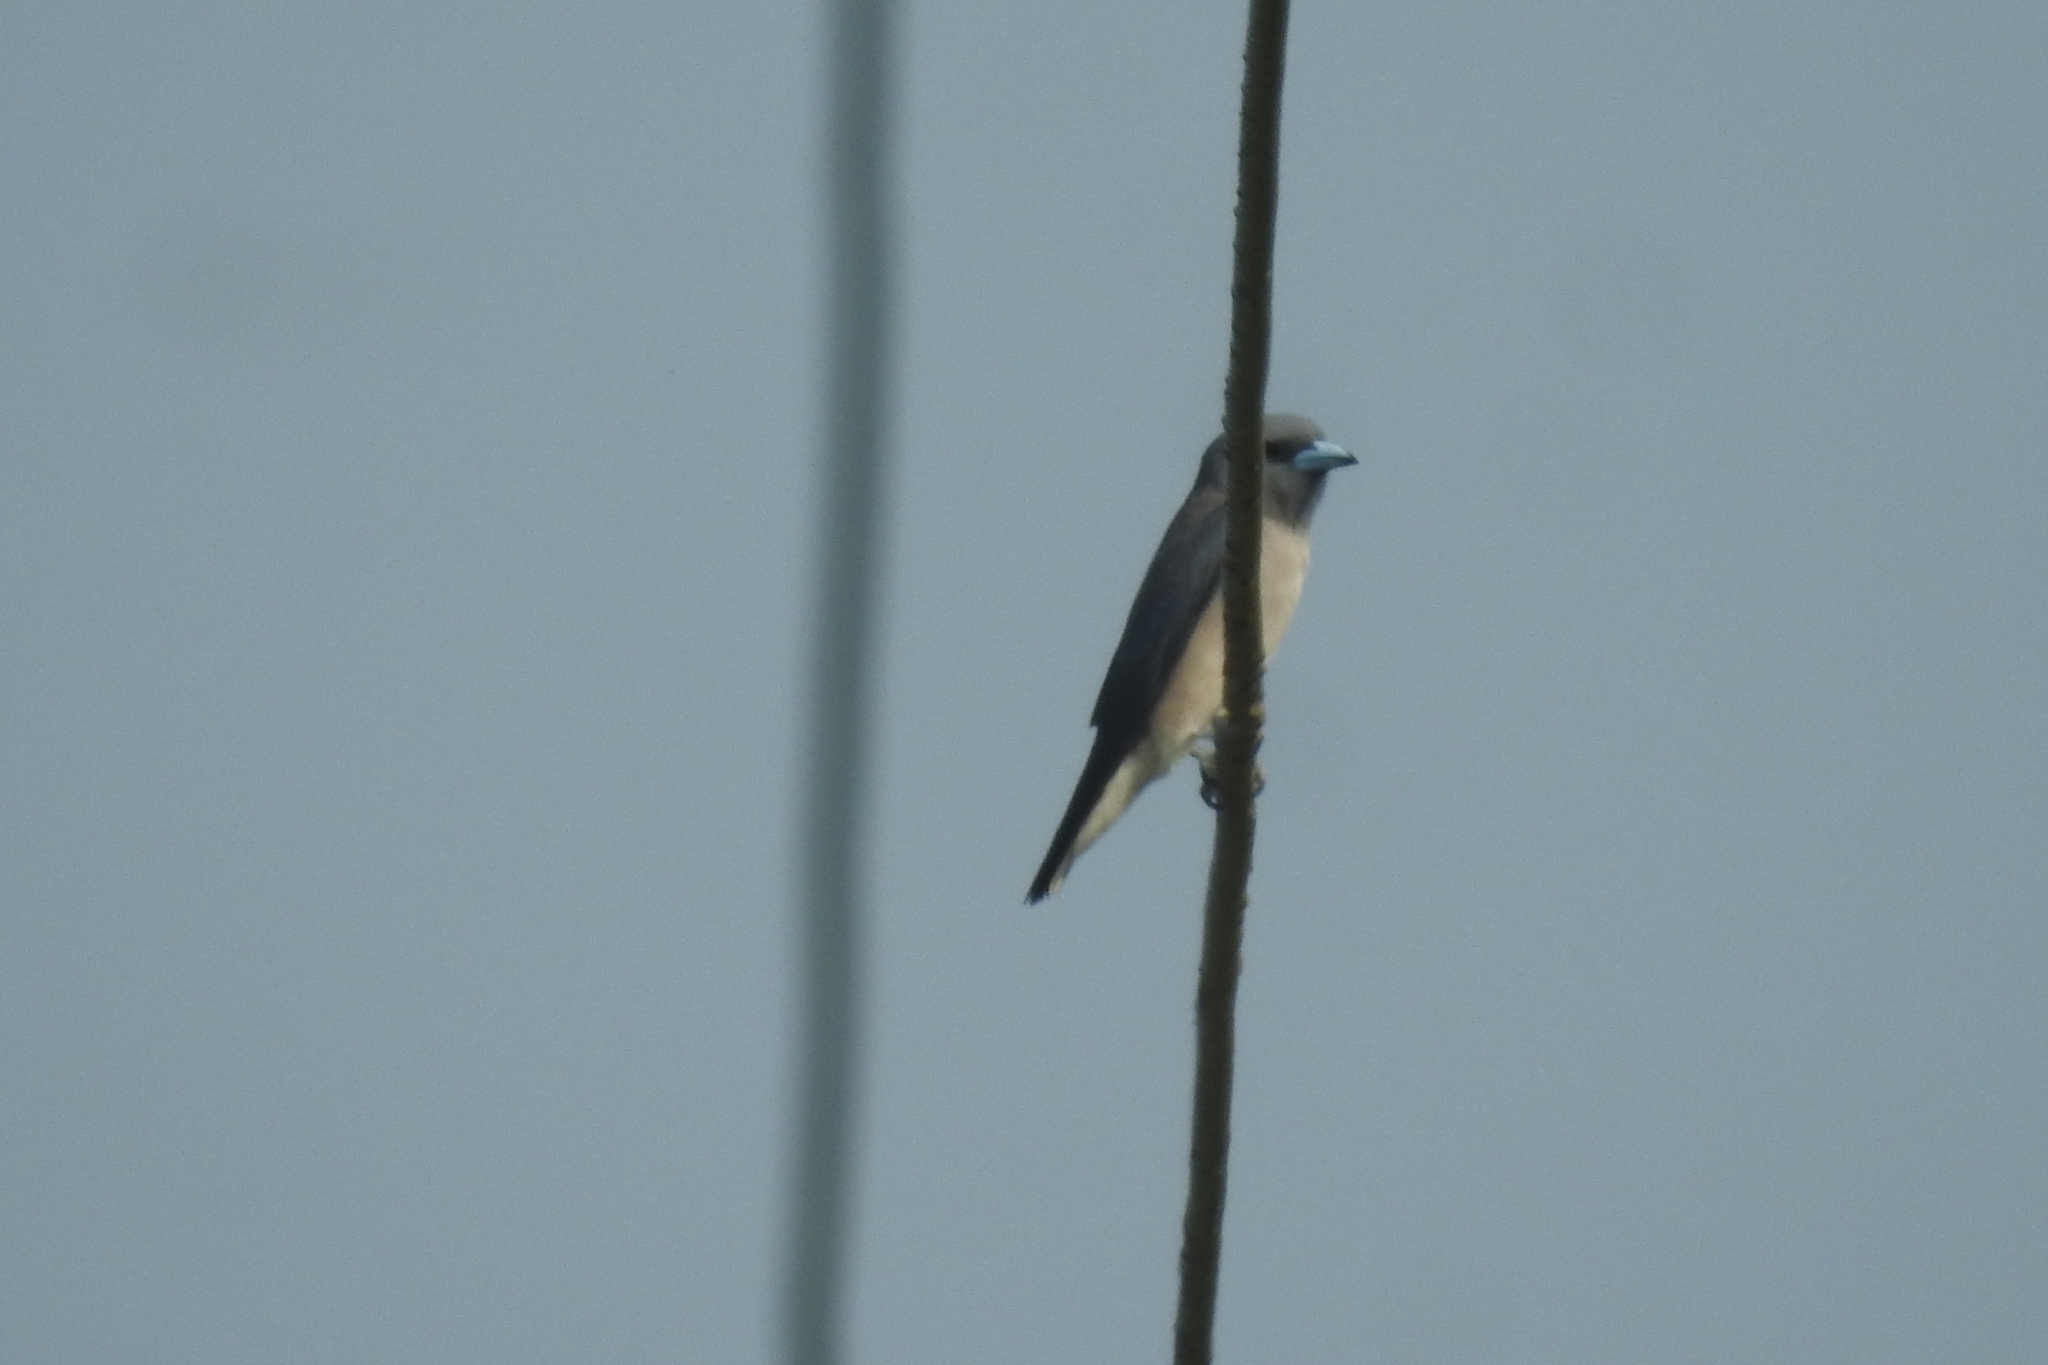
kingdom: Animalia
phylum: Chordata
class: Aves
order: Passeriformes
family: Artamidae
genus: Artamus
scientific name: Artamus fuscus
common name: Ashy woodswallow
